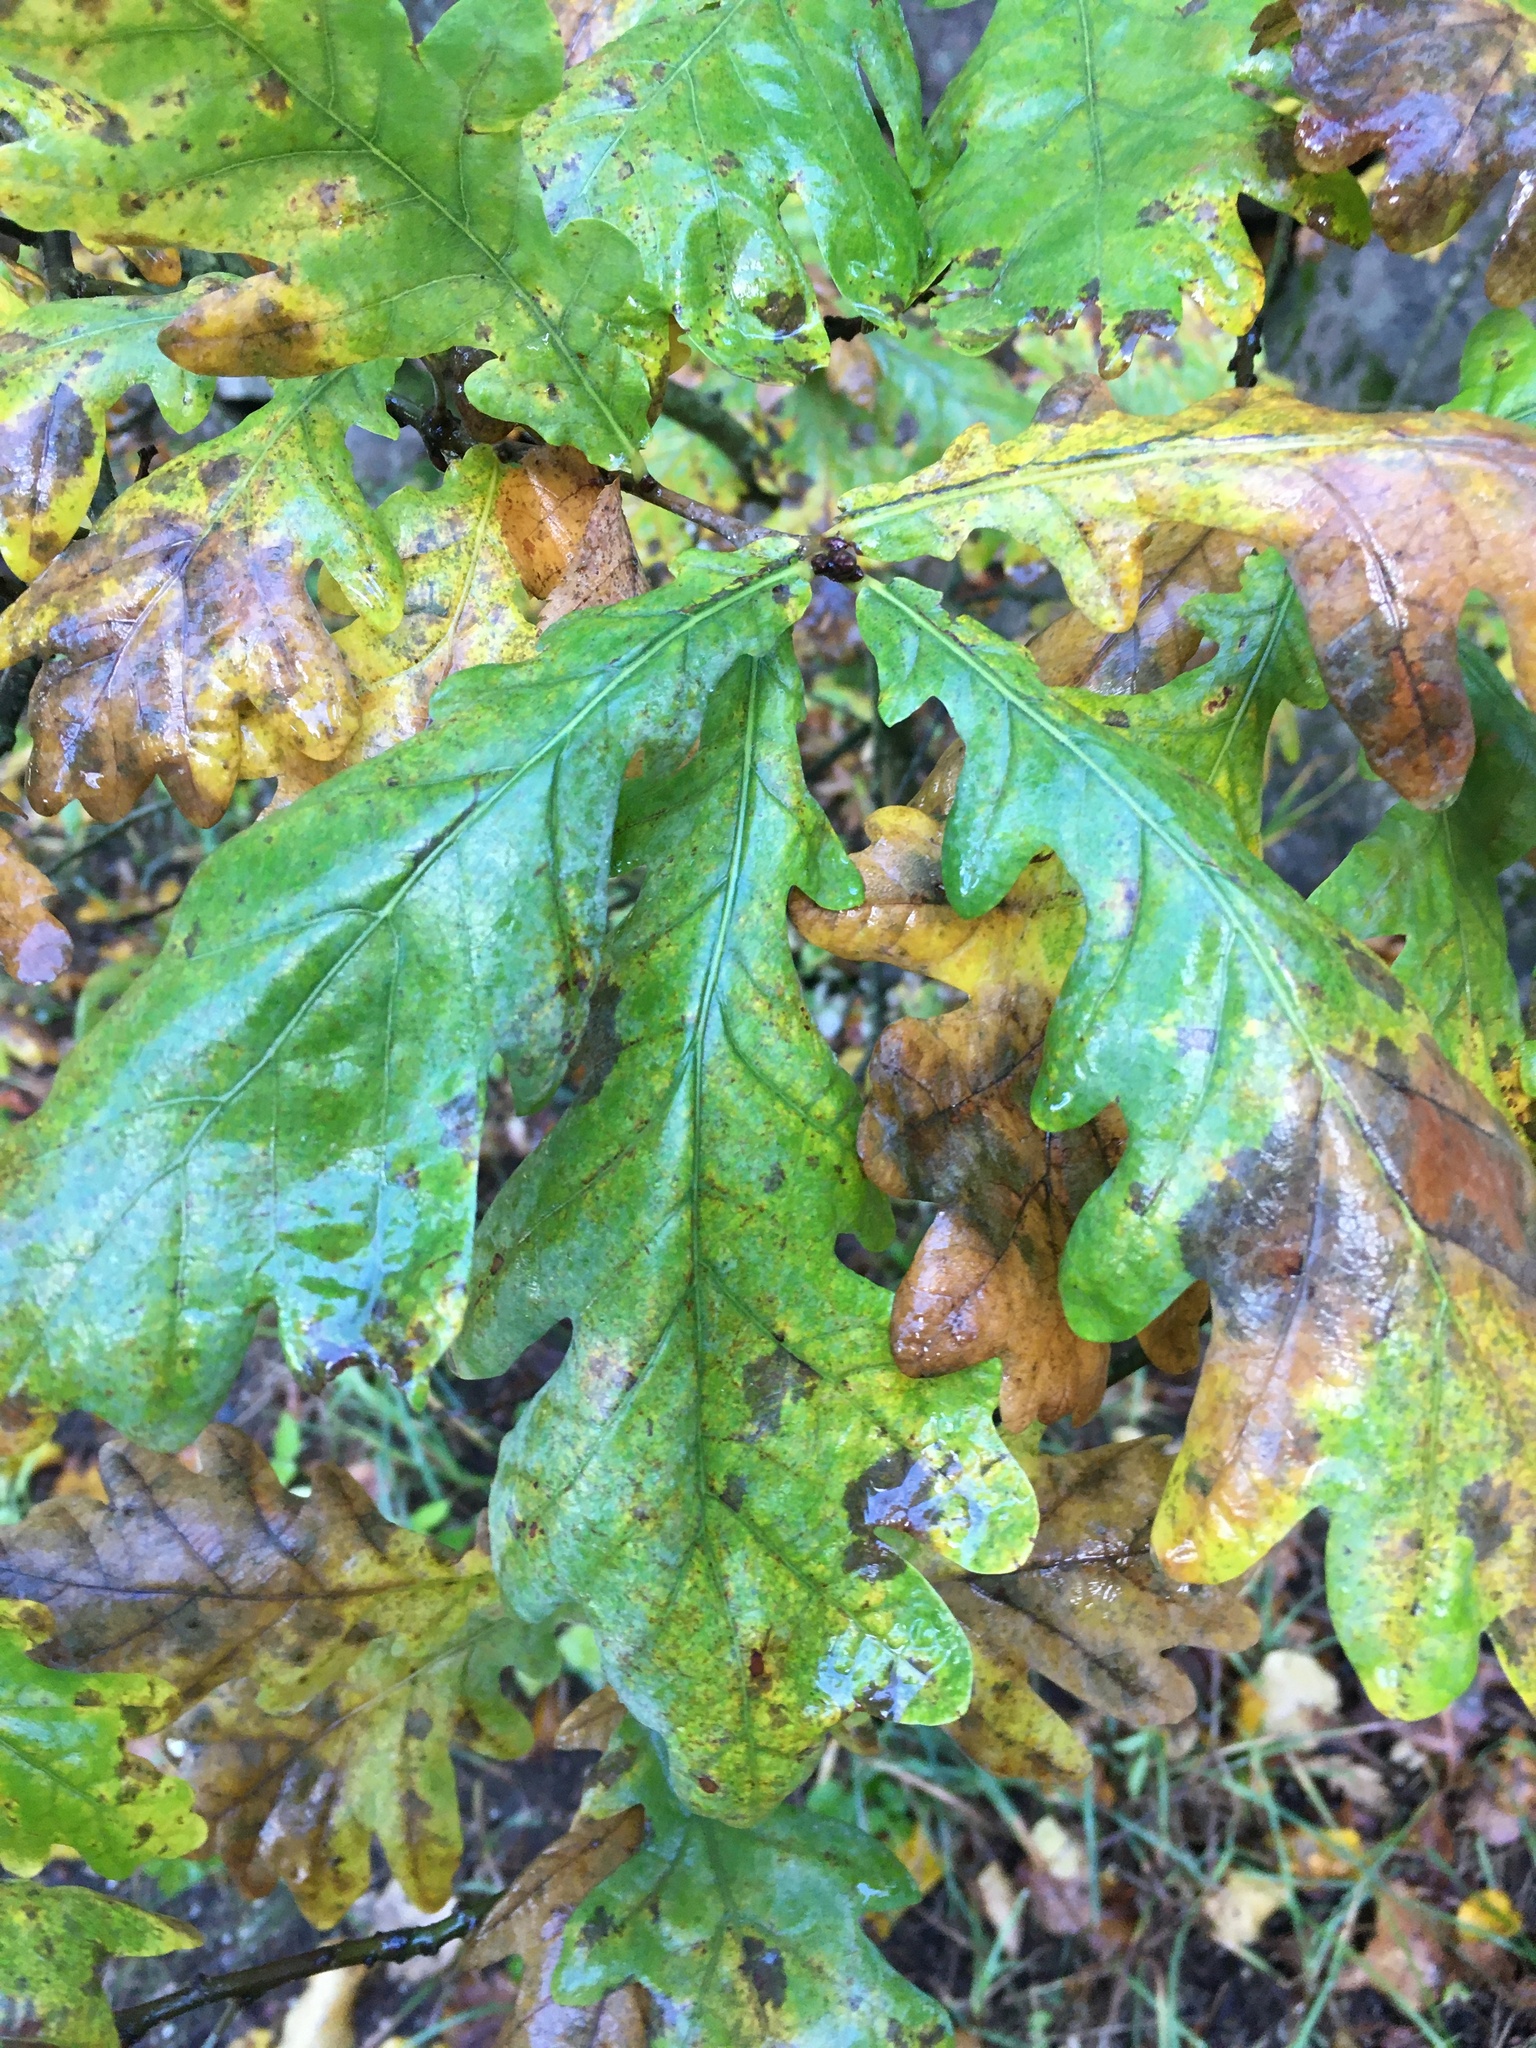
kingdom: Plantae
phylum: Tracheophyta
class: Magnoliopsida
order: Fagales
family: Fagaceae
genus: Quercus
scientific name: Quercus robur
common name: Pedunculate oak
